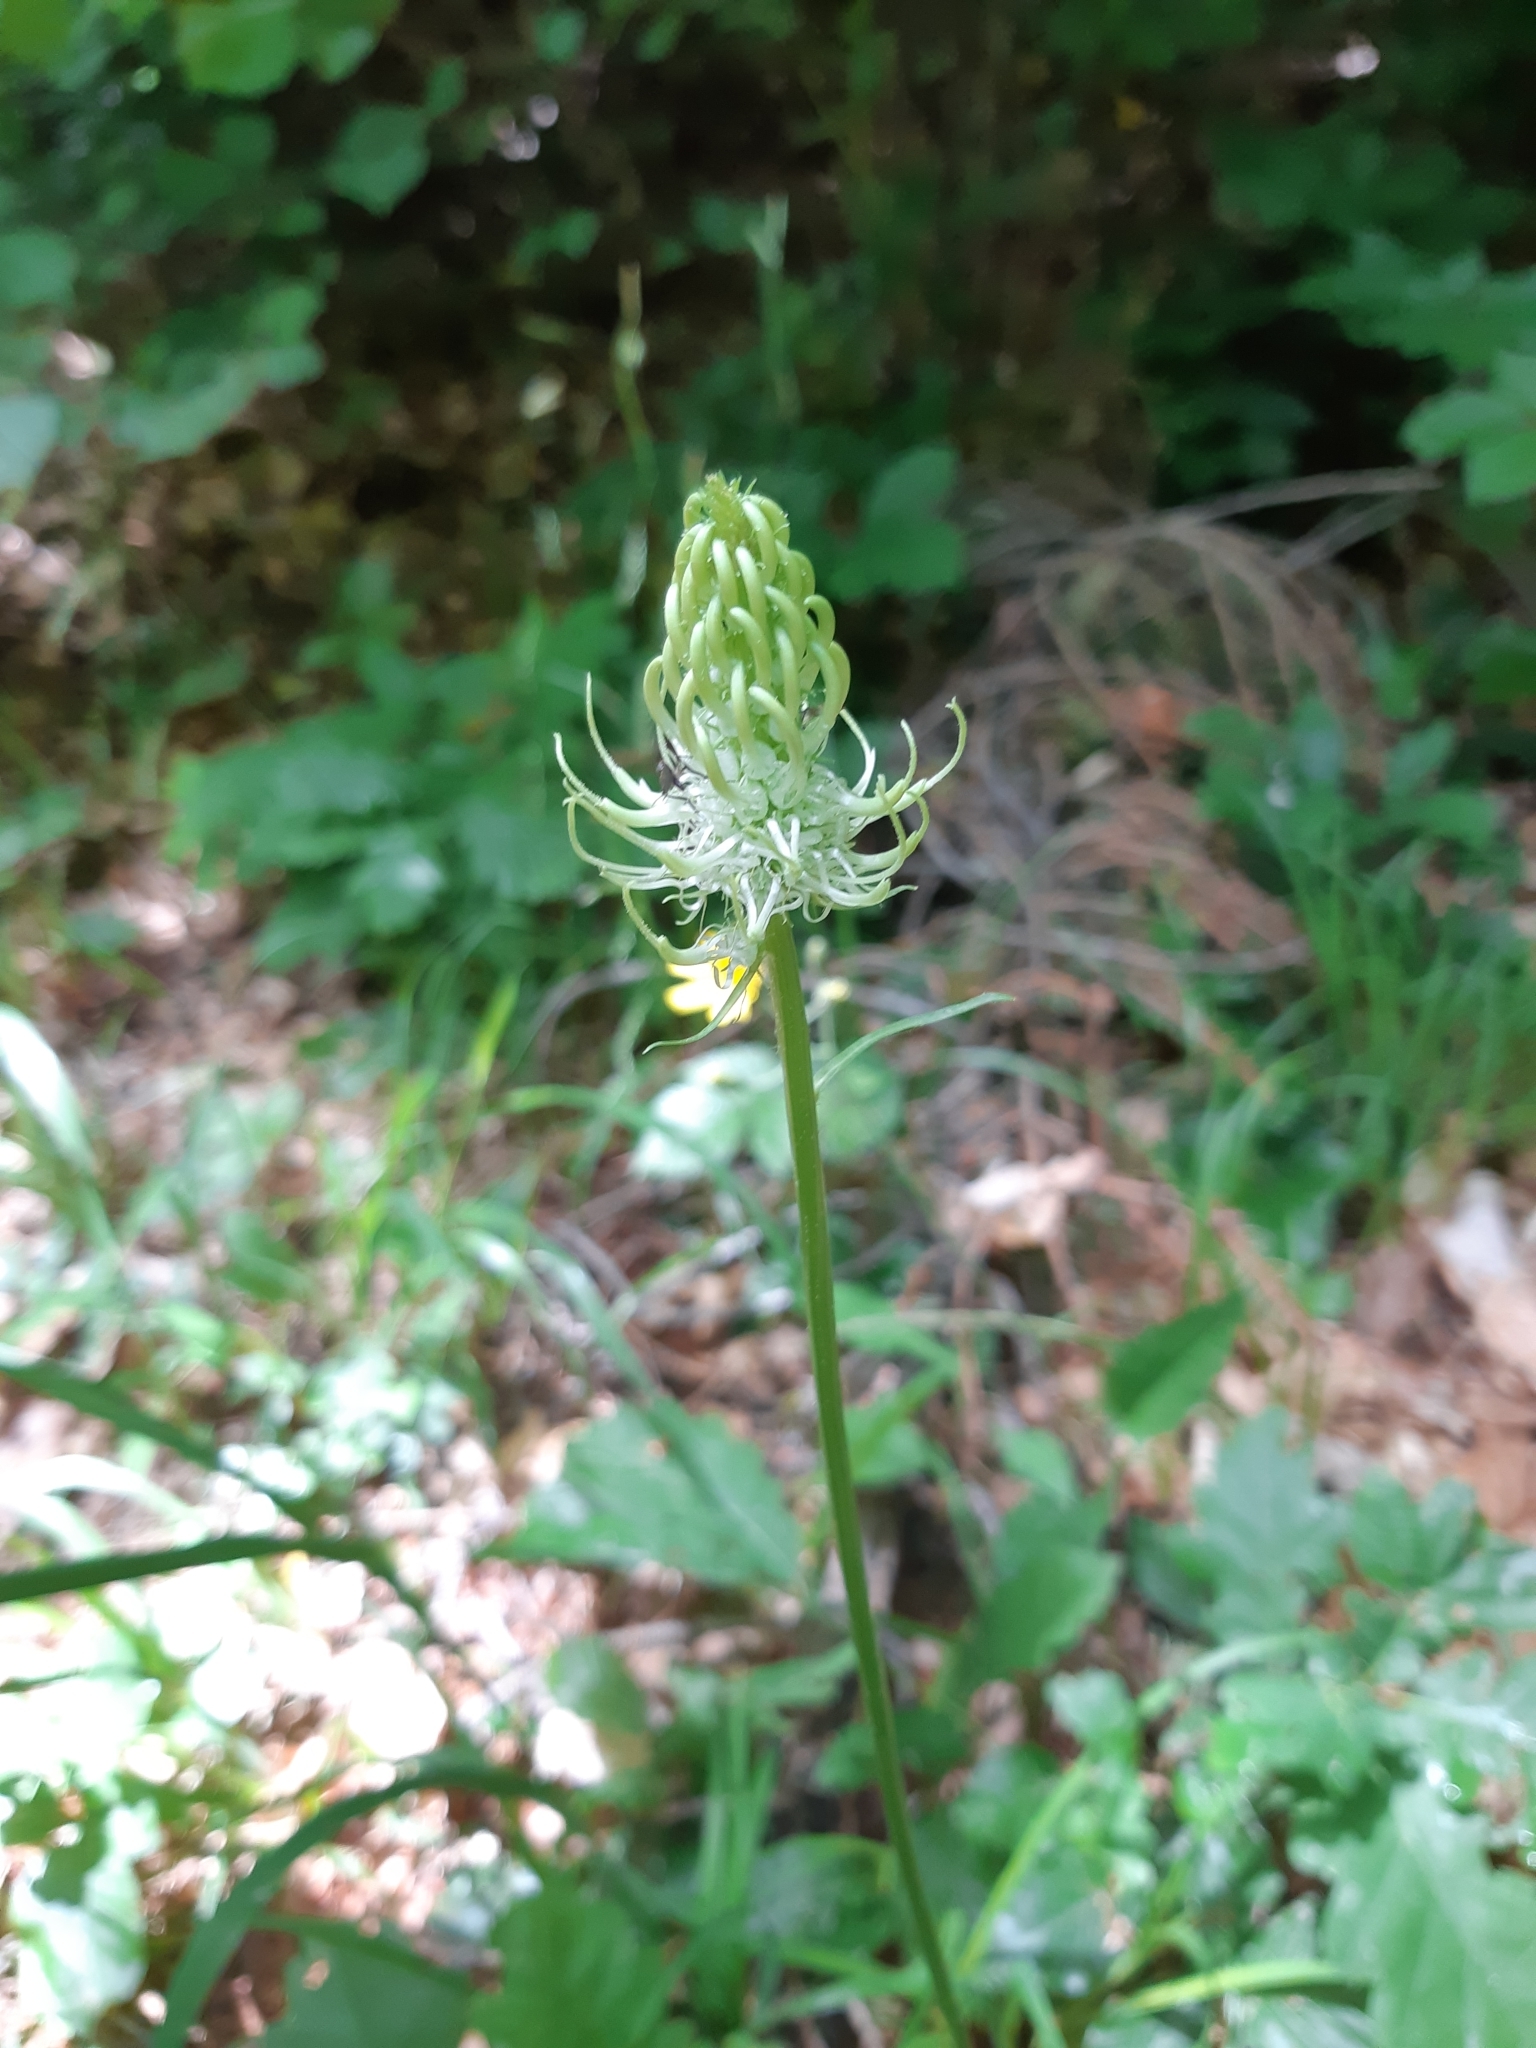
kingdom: Plantae
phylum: Tracheophyta
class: Magnoliopsida
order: Asterales
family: Campanulaceae
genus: Phyteuma
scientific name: Phyteuma spicatum
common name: Spiked rampion
